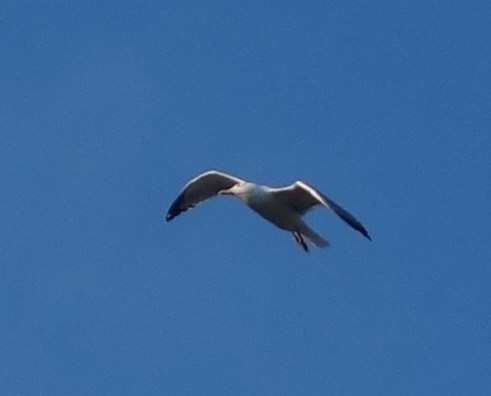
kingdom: Animalia
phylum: Chordata
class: Aves
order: Charadriiformes
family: Laridae
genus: Larus
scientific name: Larus michahellis
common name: Yellow-legged gull
